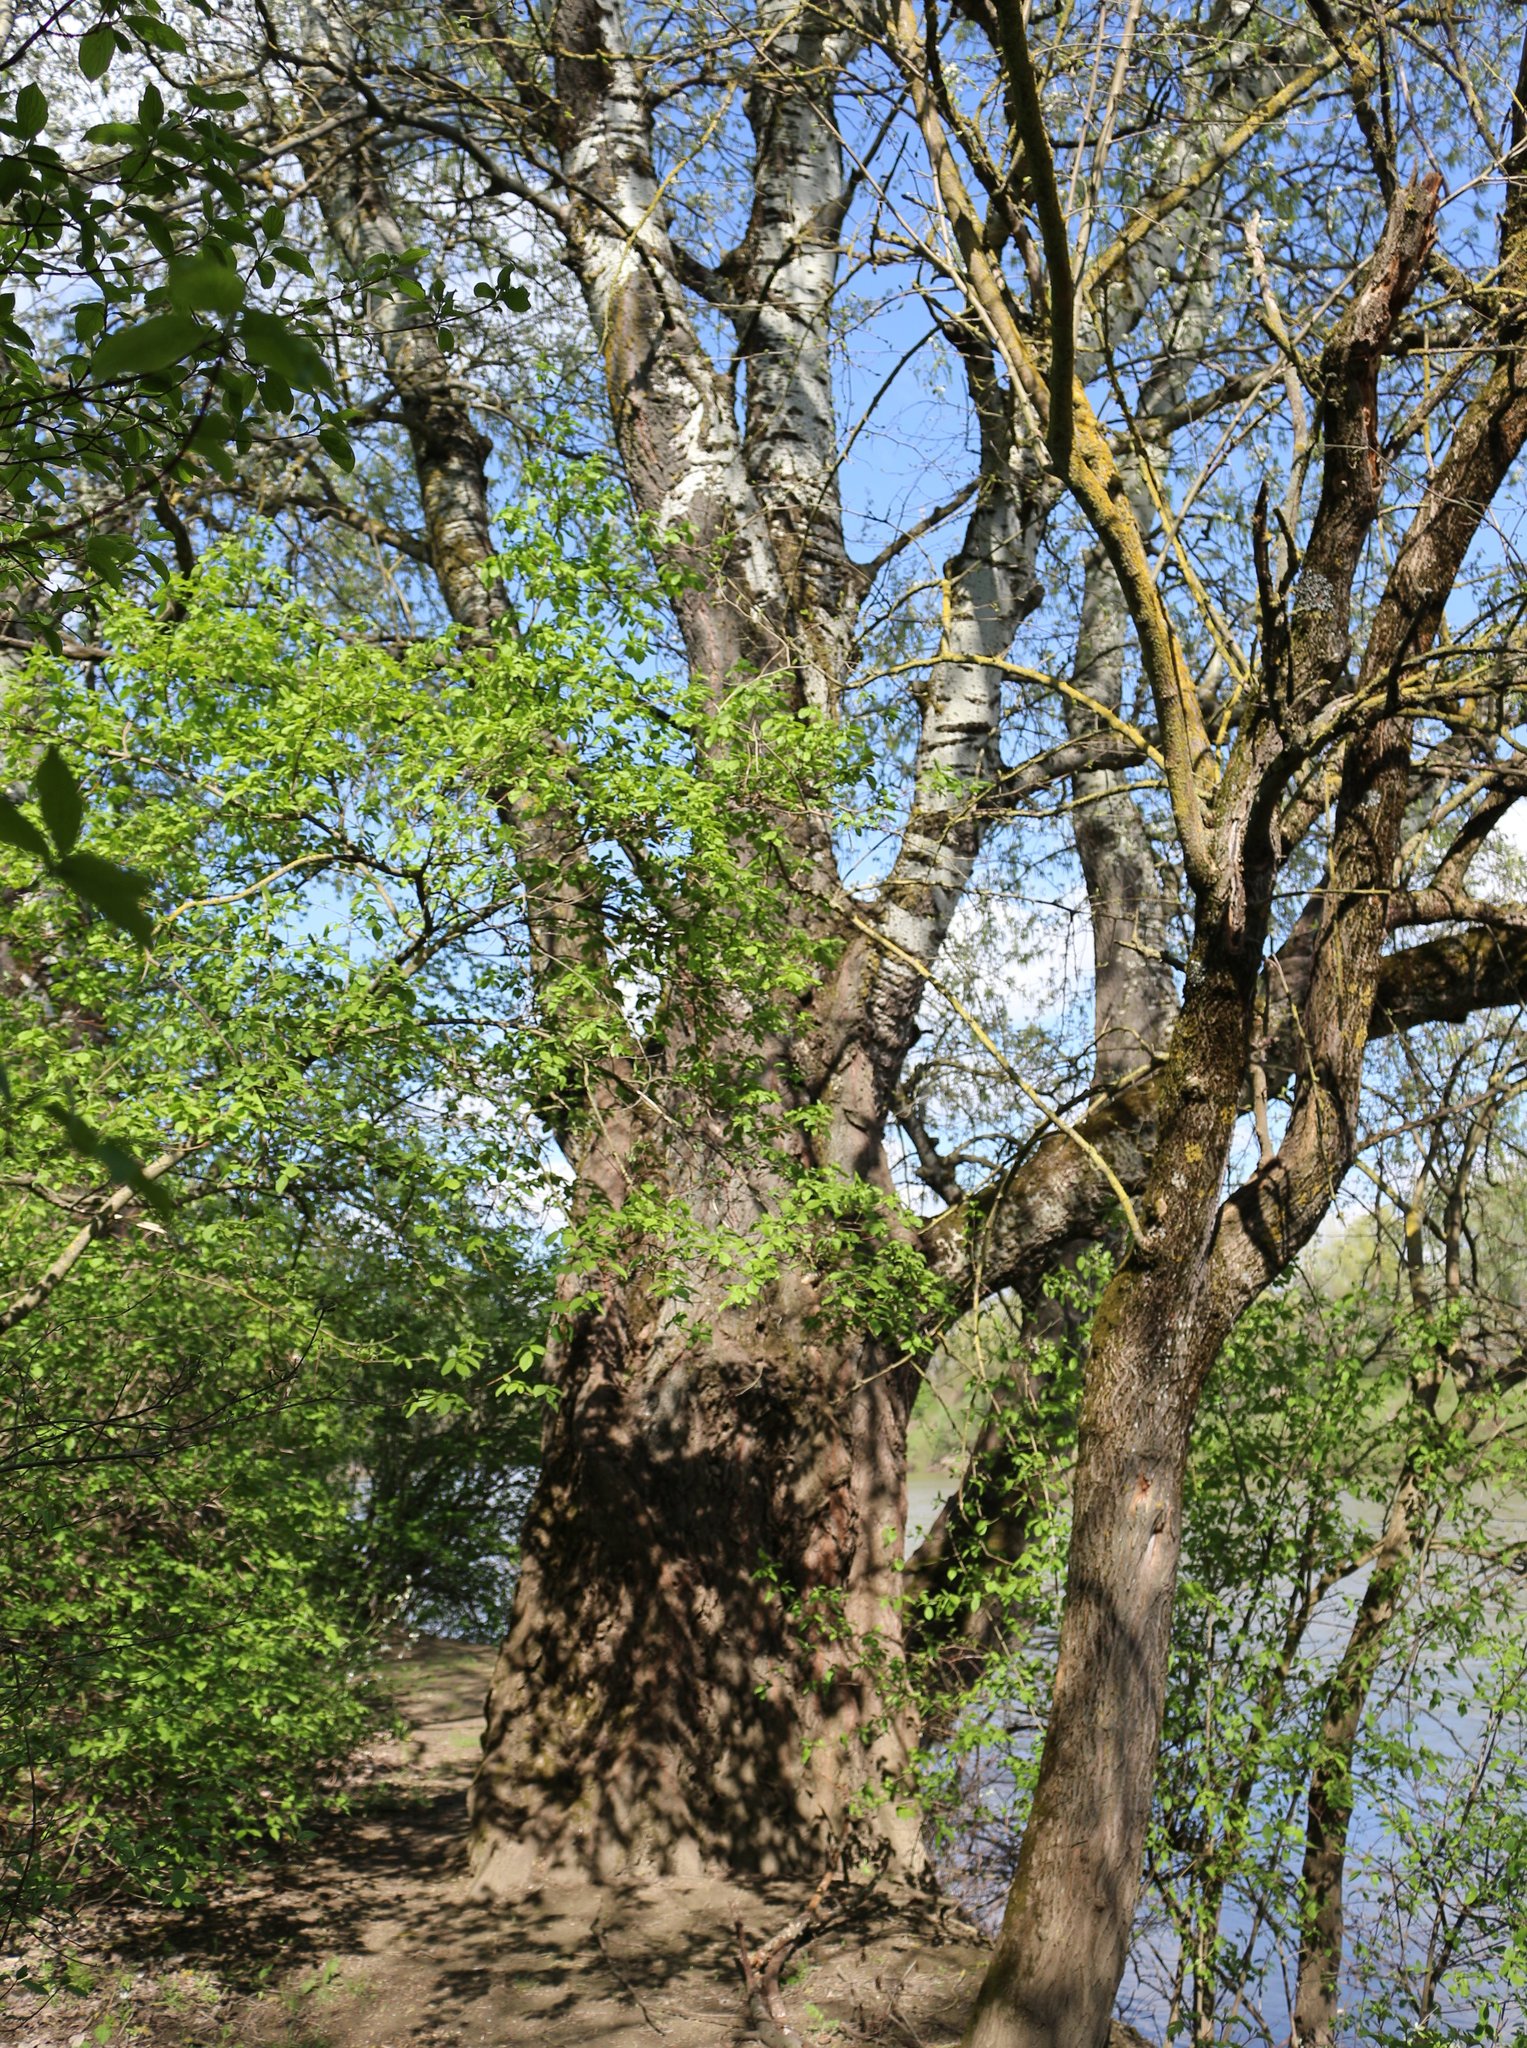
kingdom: Plantae
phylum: Tracheophyta
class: Magnoliopsida
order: Malpighiales
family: Salicaceae
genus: Populus
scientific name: Populus alba
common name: White poplar
